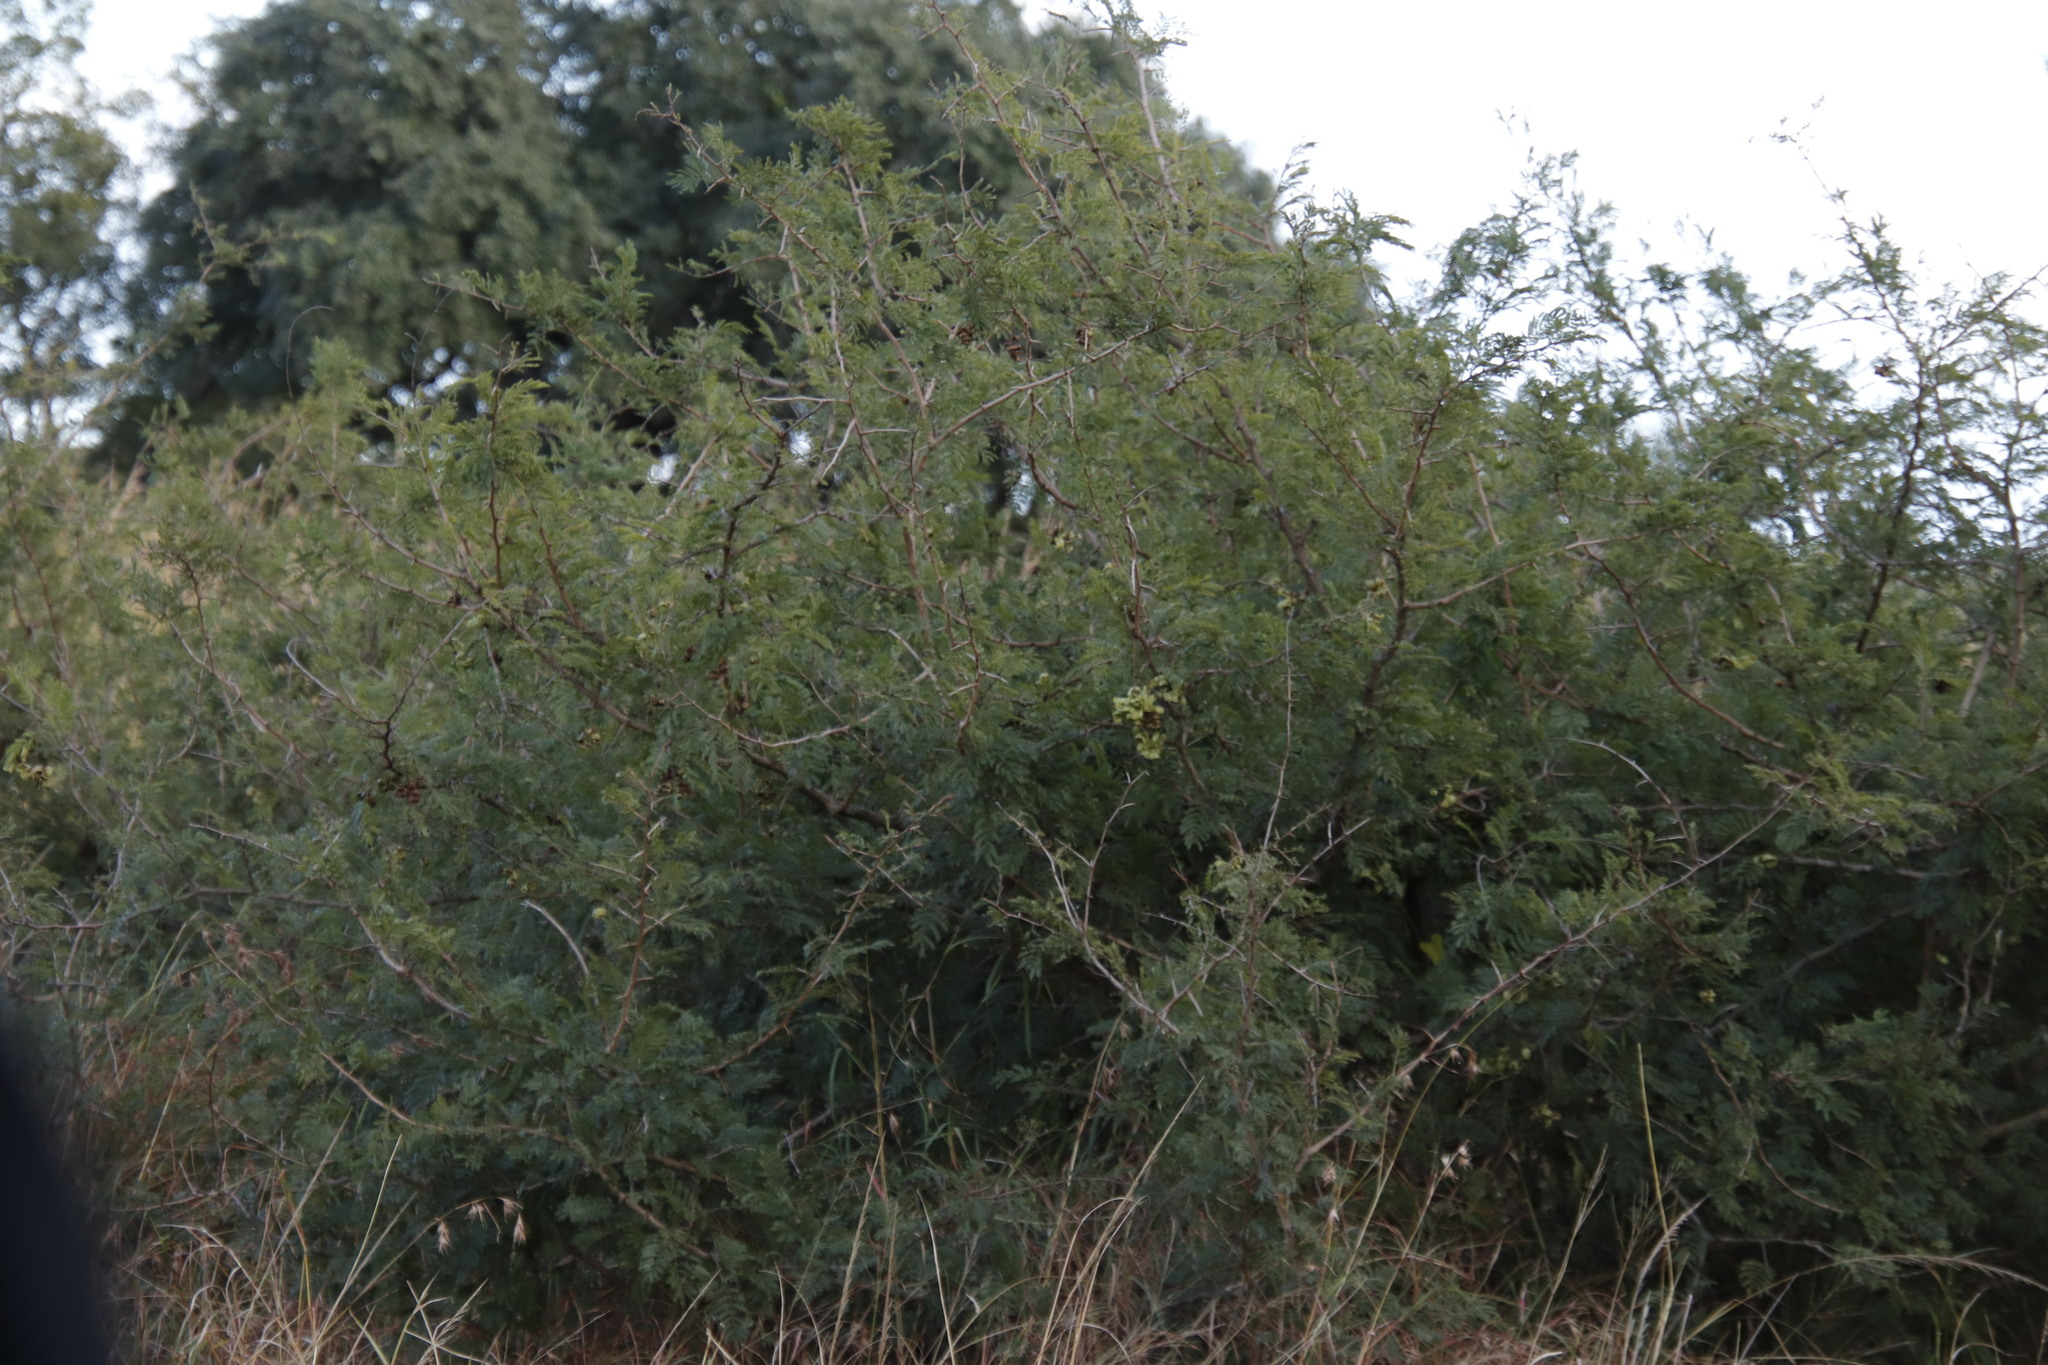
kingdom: Plantae
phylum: Tracheophyta
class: Magnoliopsida
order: Fabales
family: Fabaceae
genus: Dichrostachys
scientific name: Dichrostachys cinerea
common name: Sicklebush
